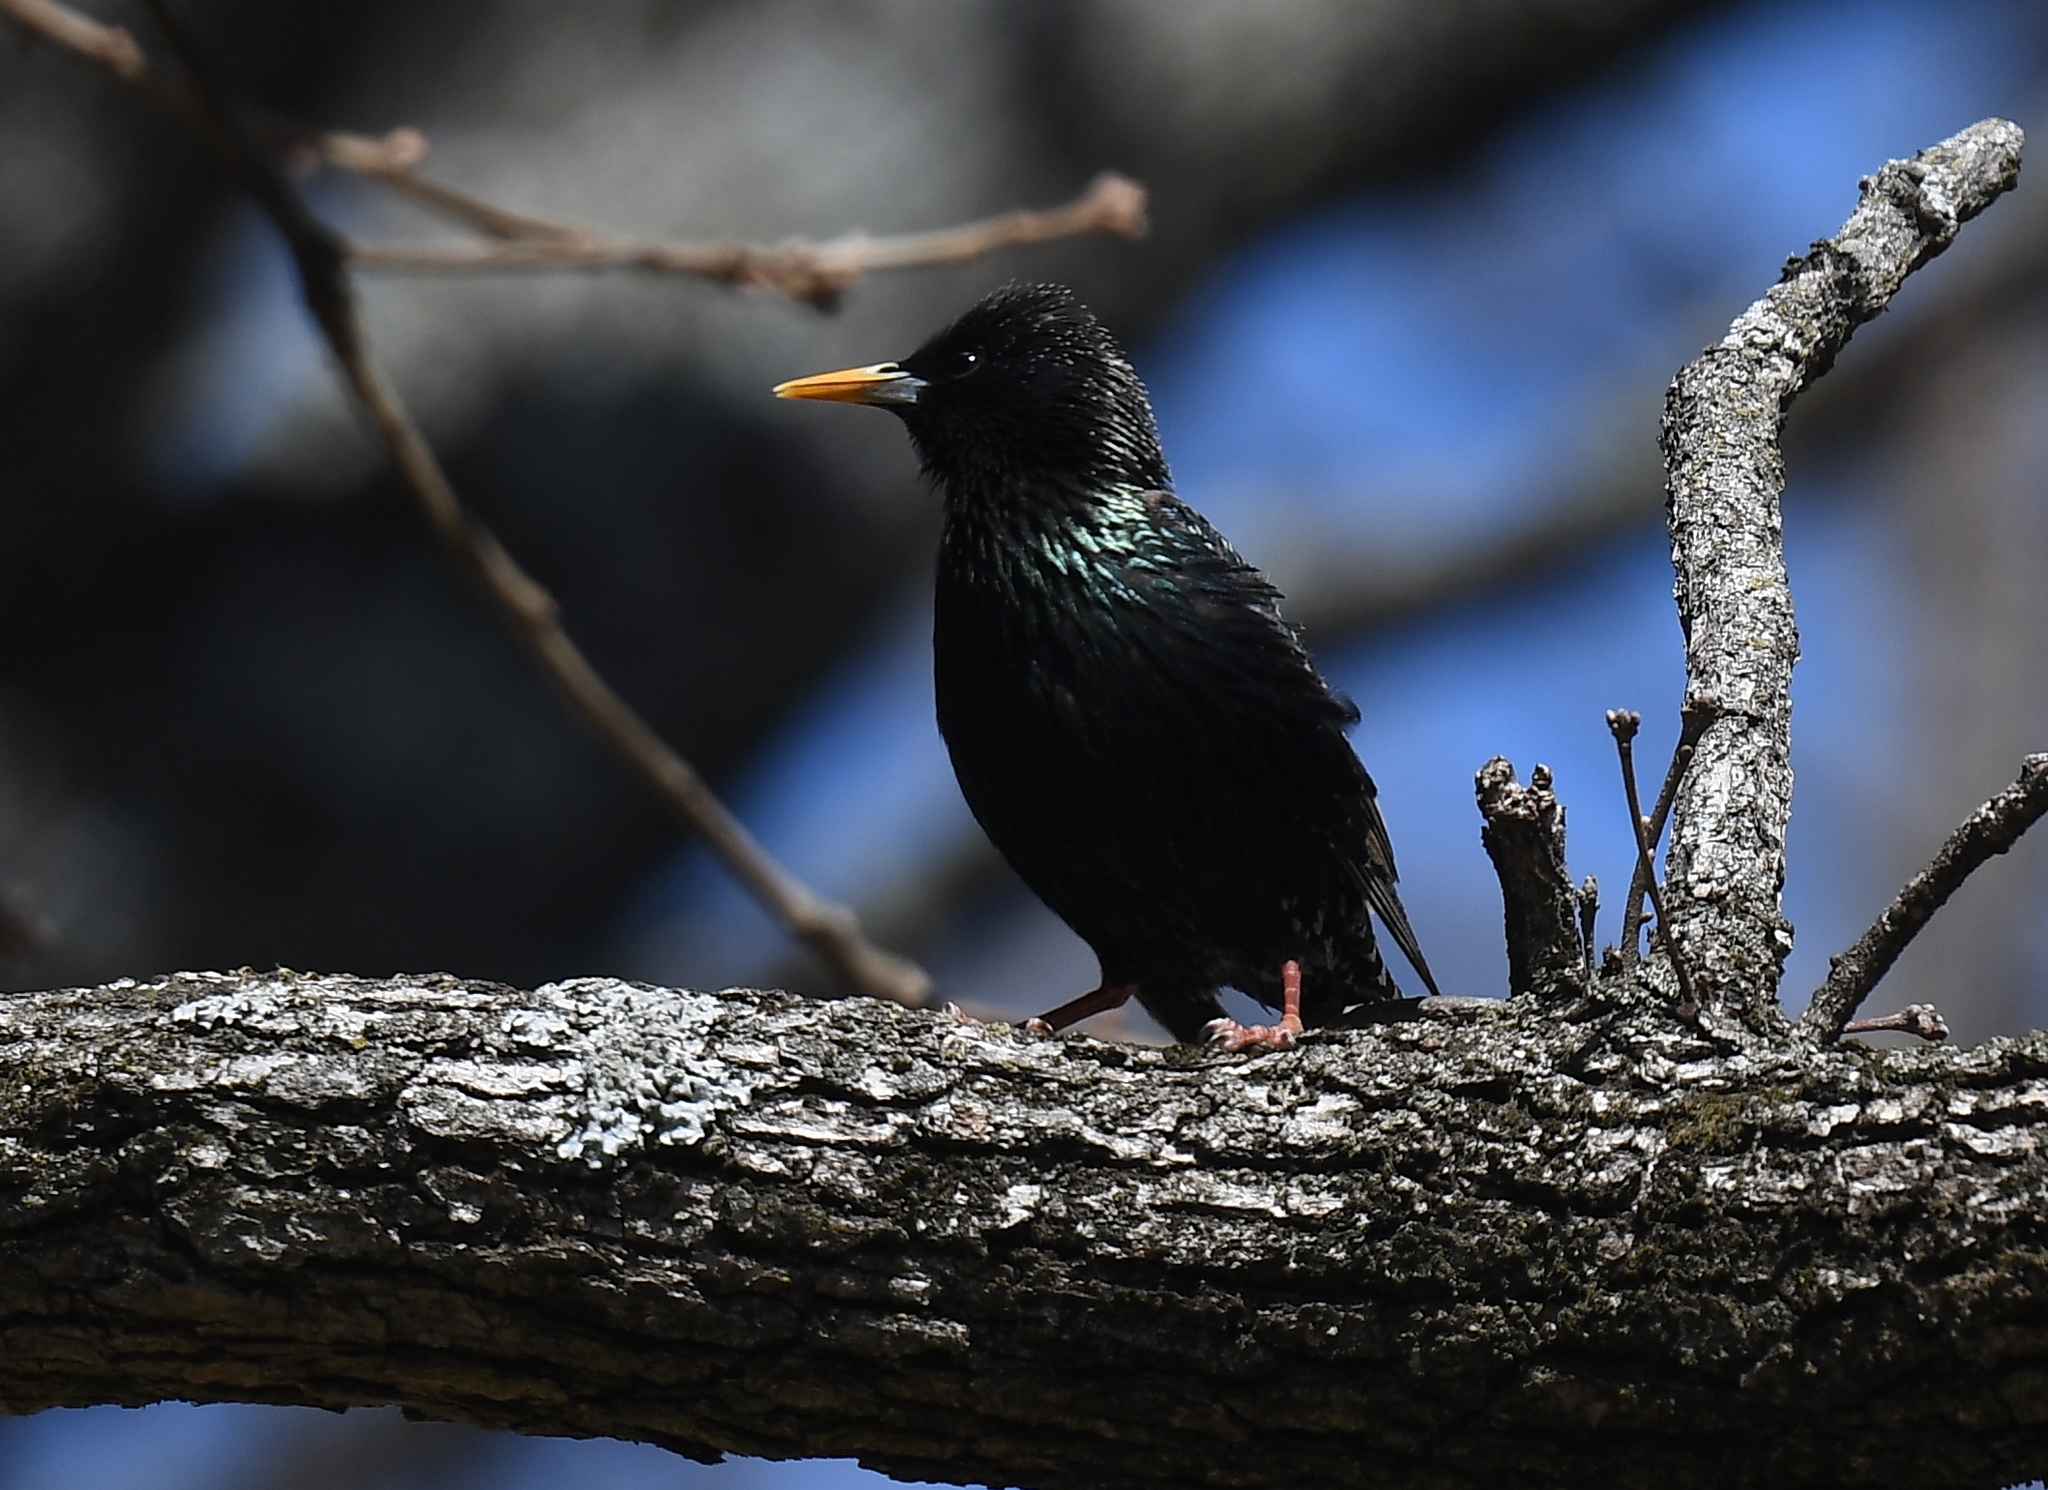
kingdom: Animalia
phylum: Chordata
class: Aves
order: Passeriformes
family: Sturnidae
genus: Sturnus
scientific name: Sturnus vulgaris
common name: Common starling
